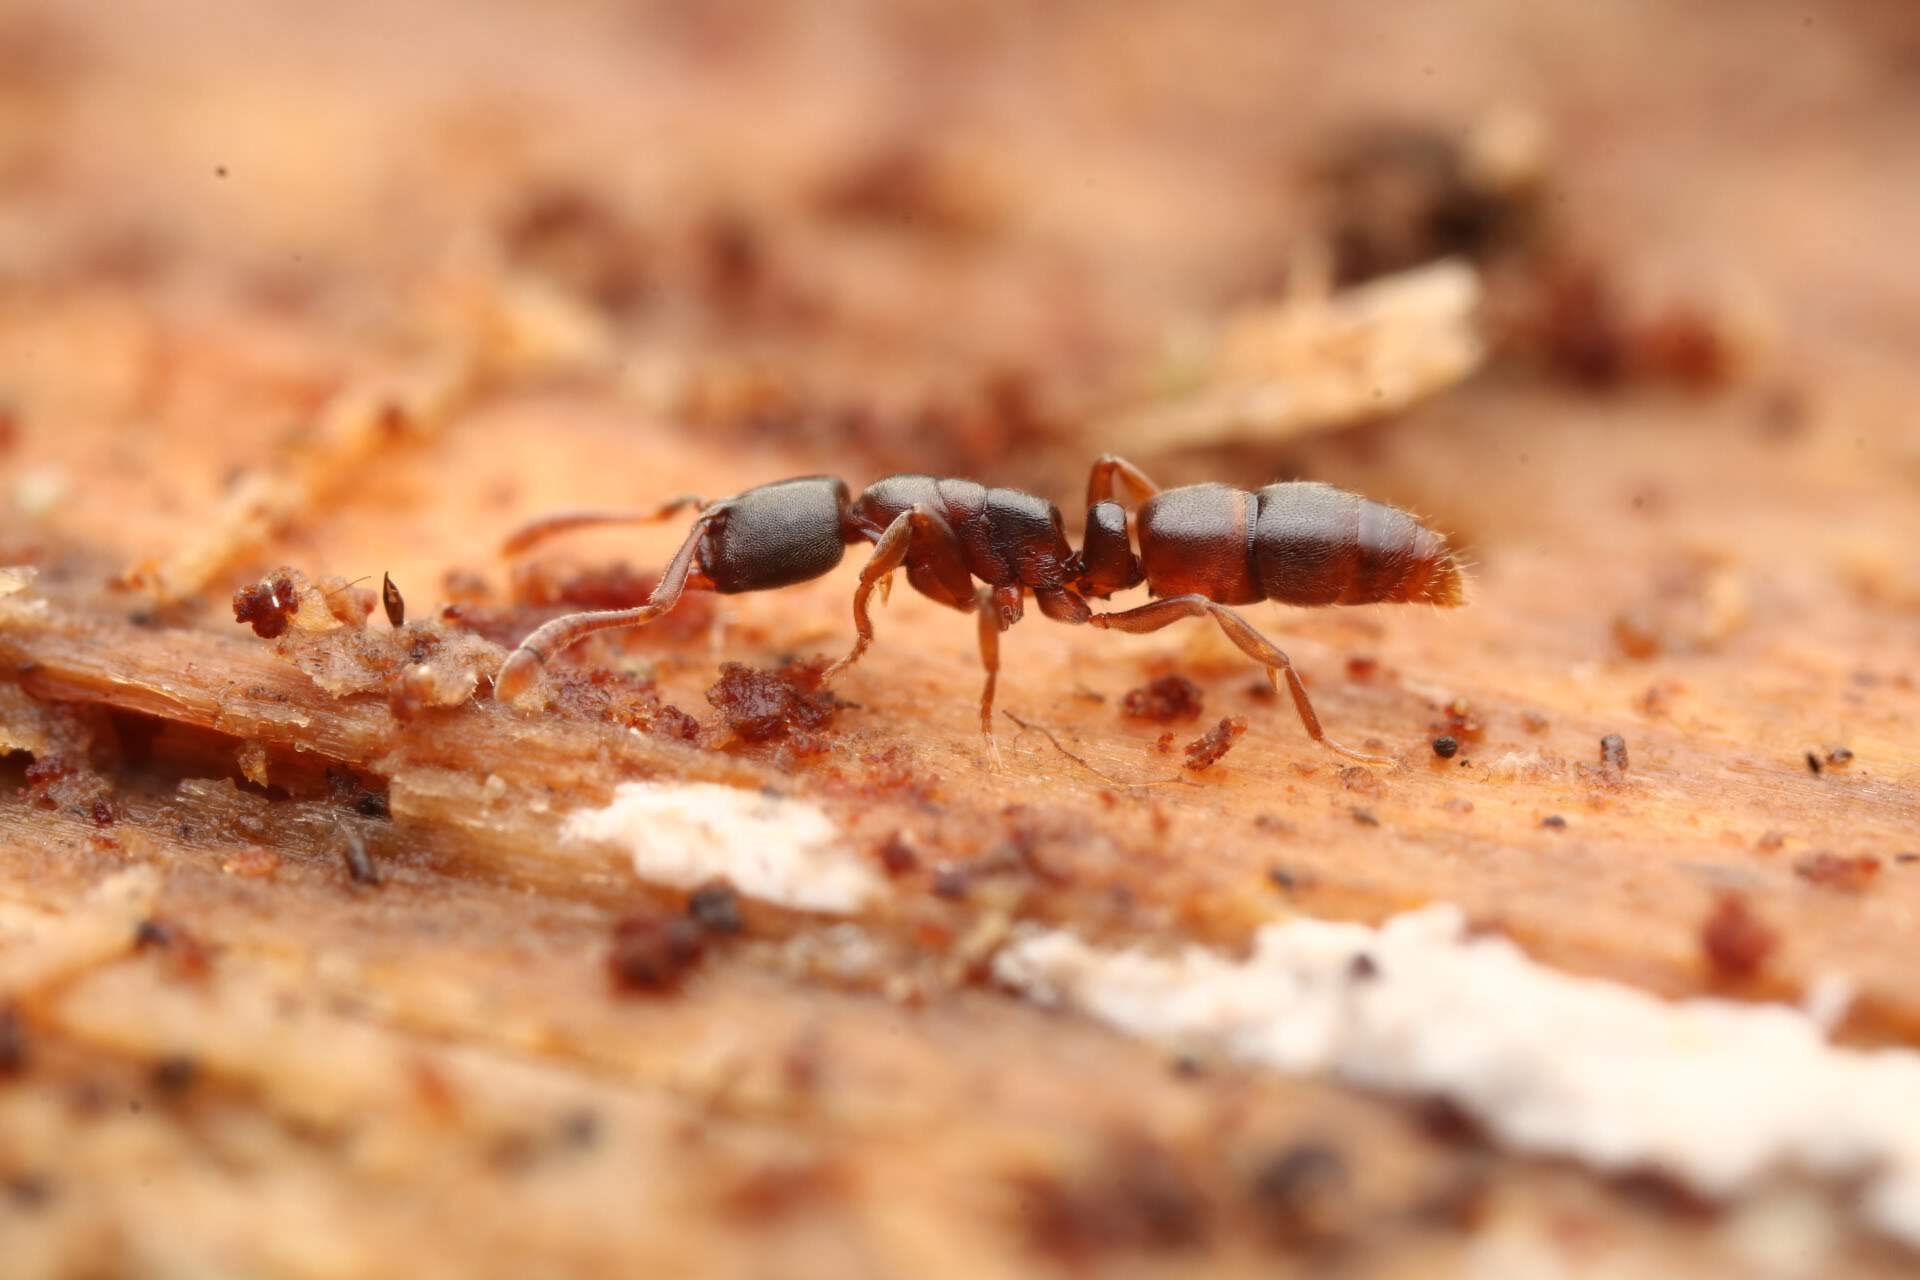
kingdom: Animalia
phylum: Arthropoda
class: Insecta
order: Hymenoptera
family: Formicidae
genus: Ponera
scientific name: Ponera pennsylvanica
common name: Pennsylvania ponera
